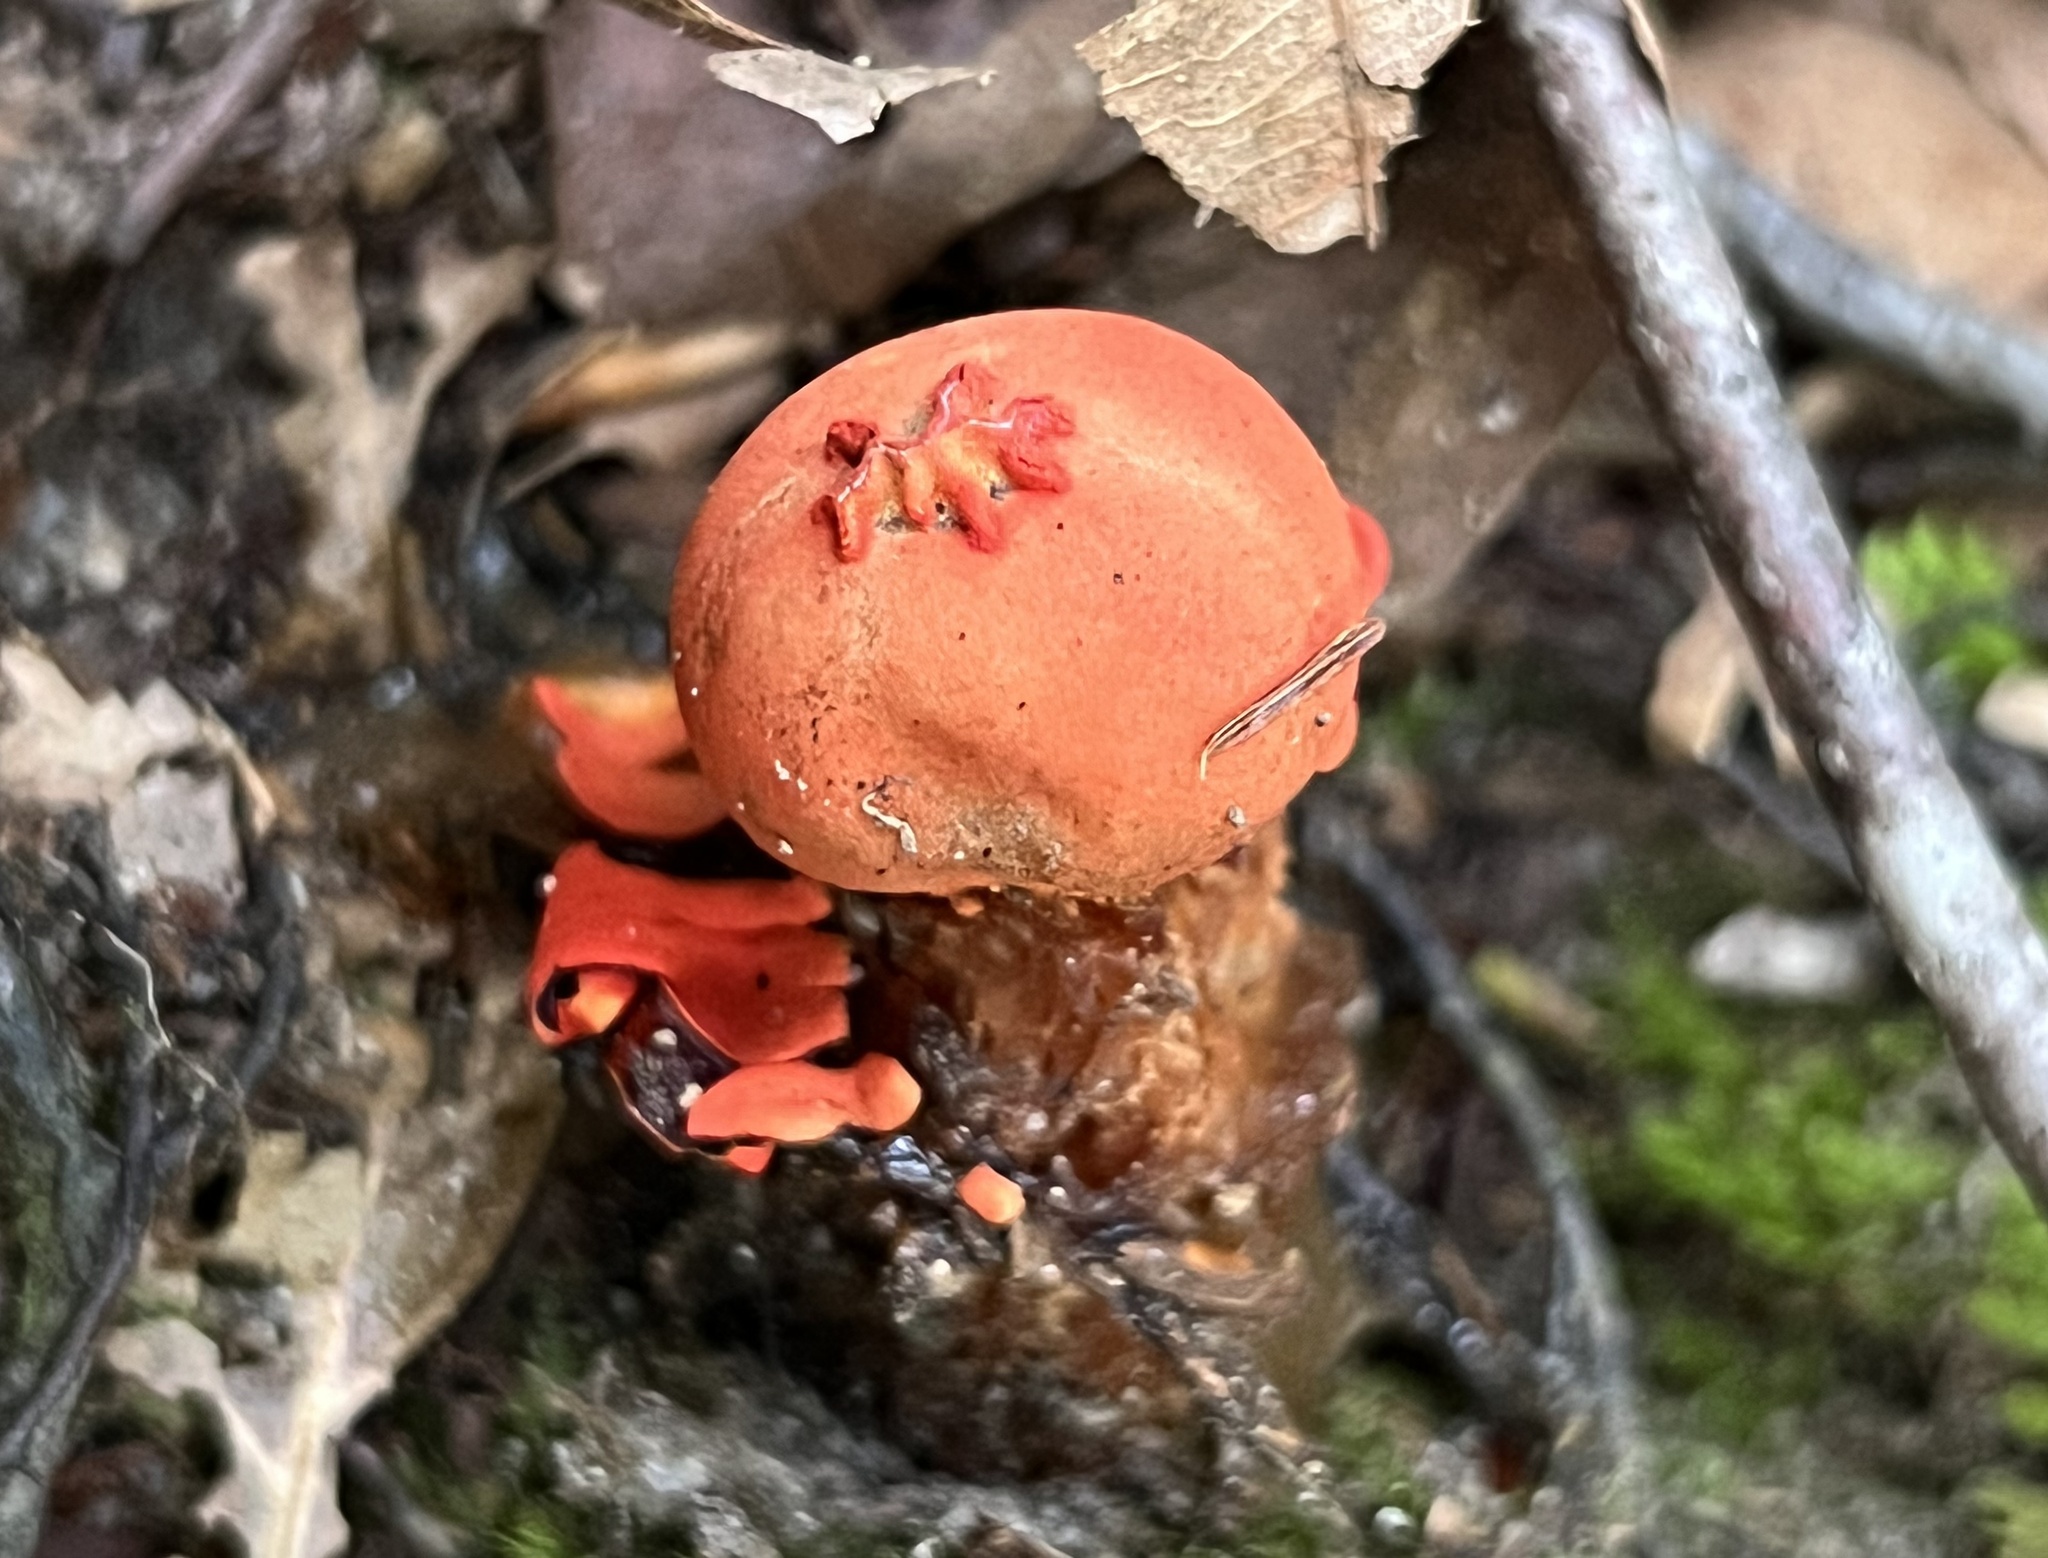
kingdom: Fungi
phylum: Basidiomycota
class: Agaricomycetes
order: Boletales
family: Calostomataceae
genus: Calostoma
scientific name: Calostoma cinnabarinum
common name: Stalked puffball-in-aspic
